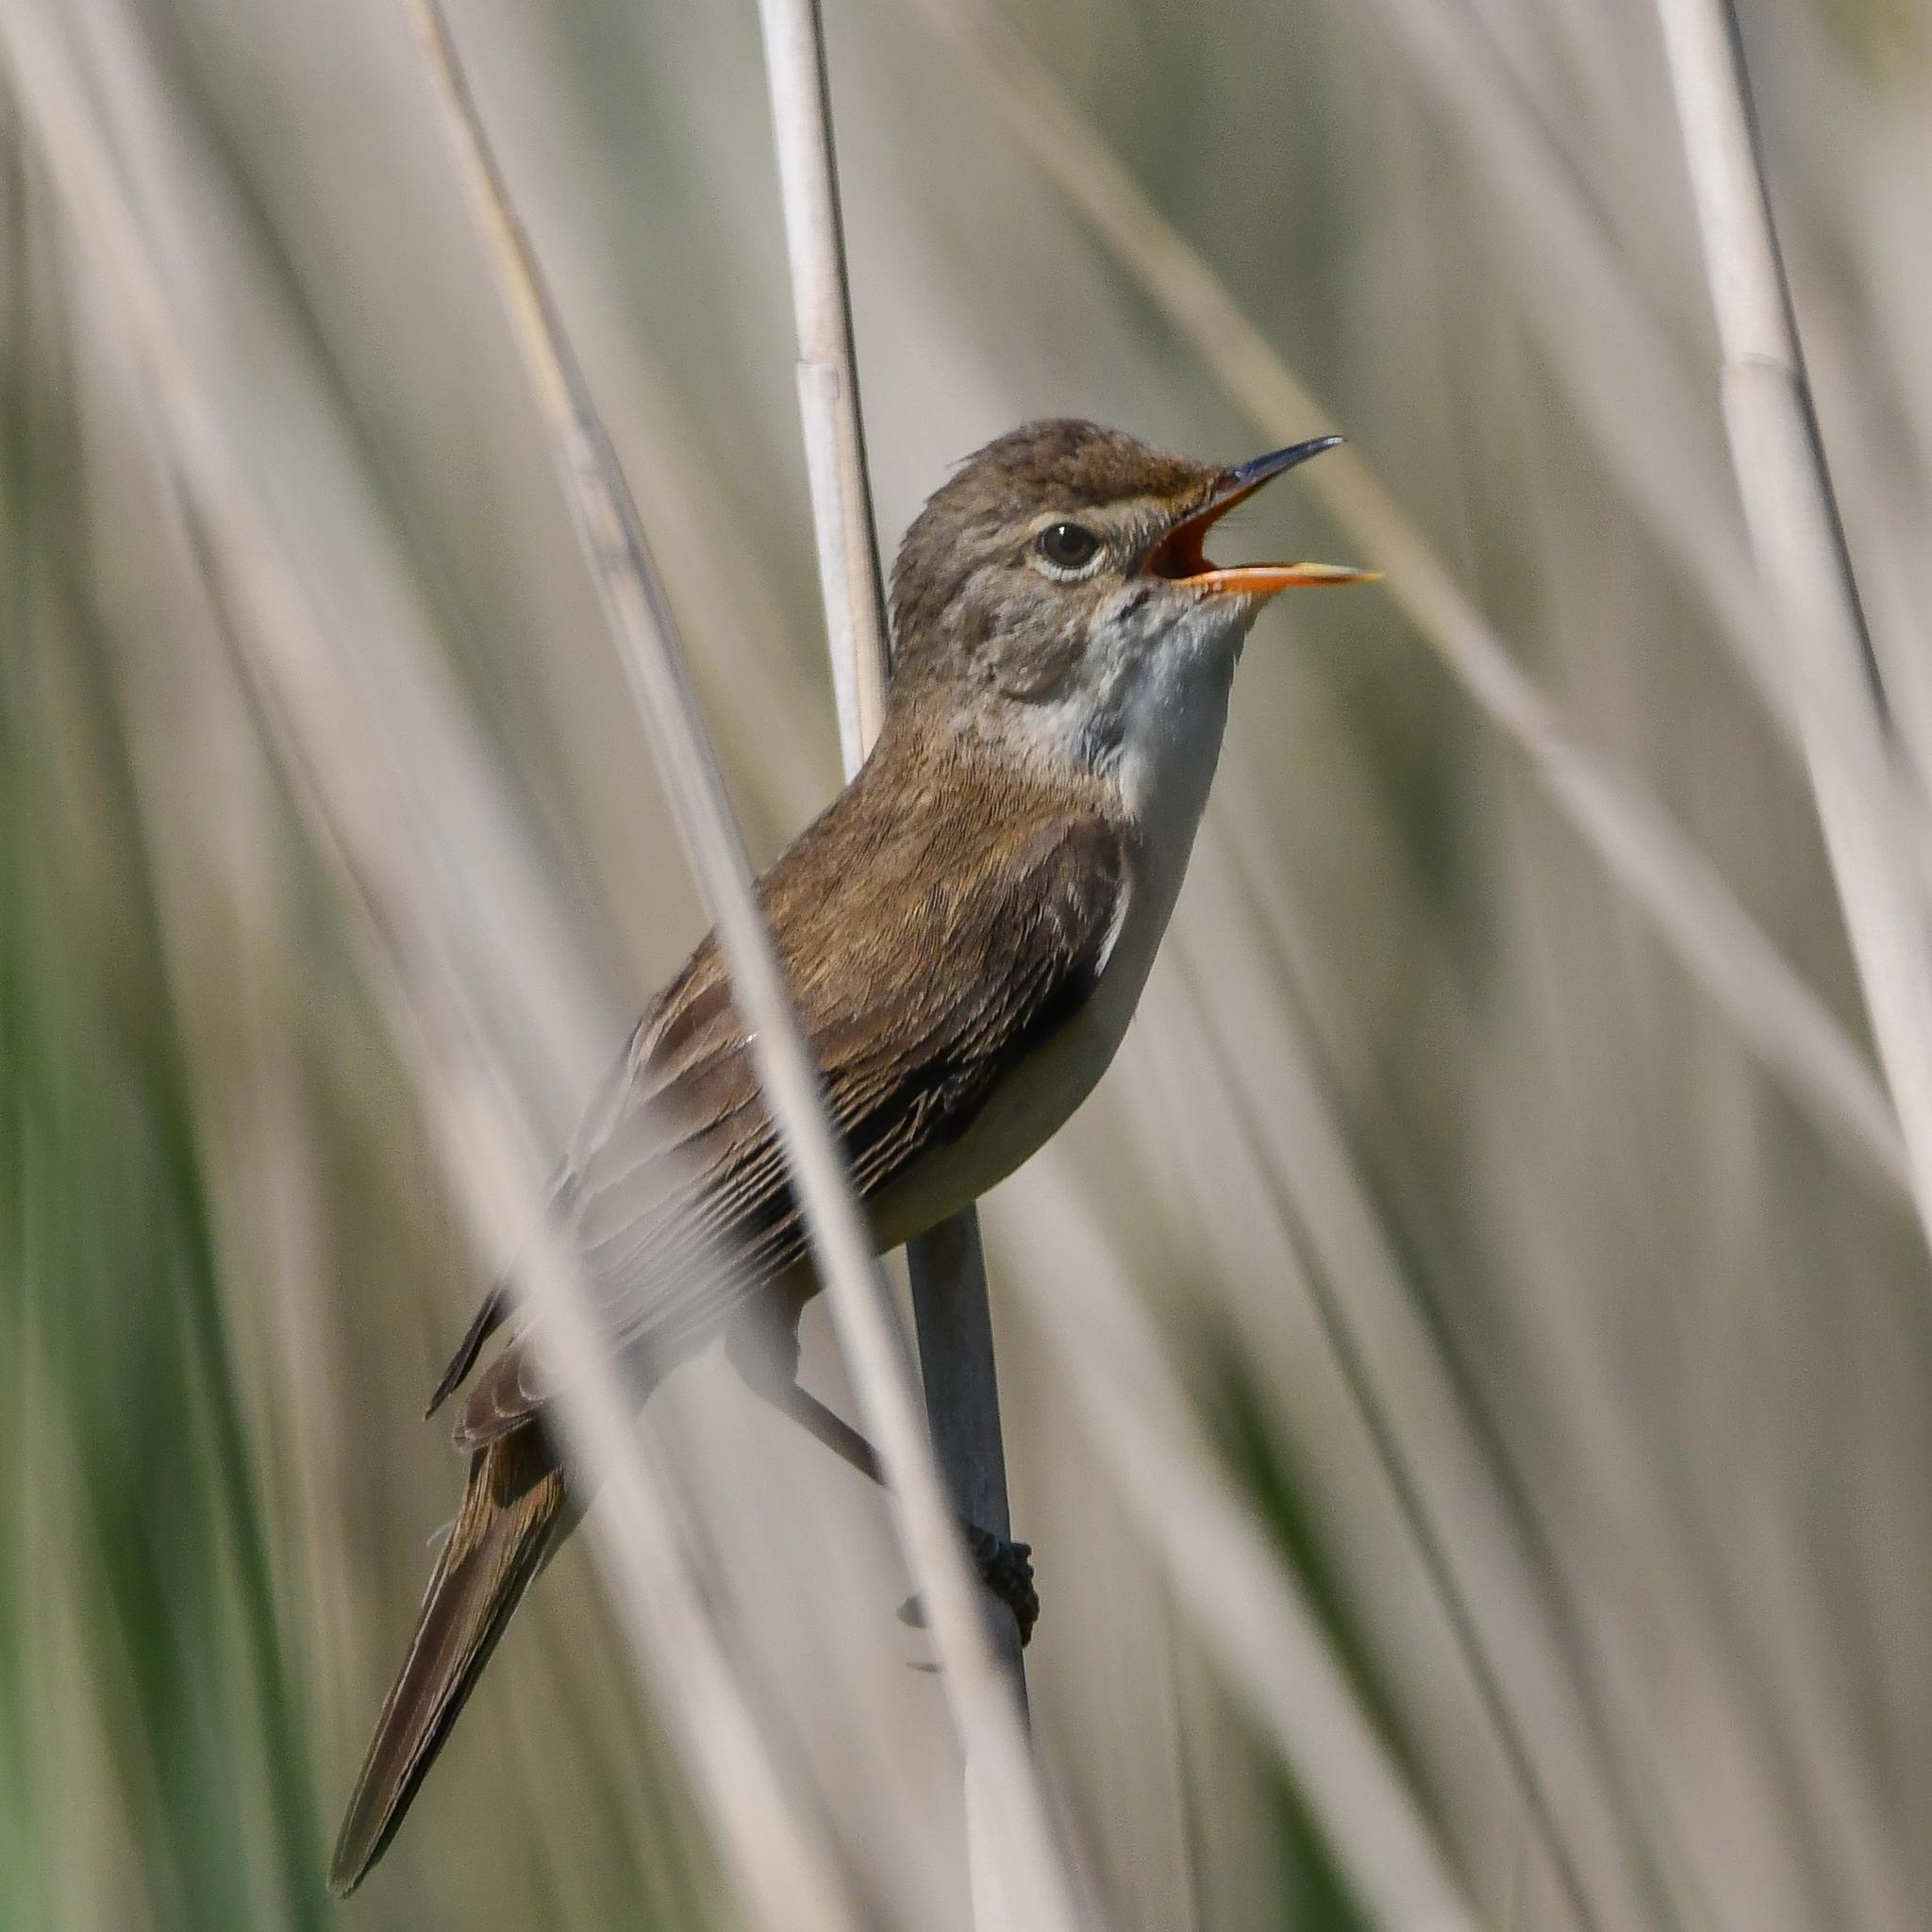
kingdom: Animalia
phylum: Chordata
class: Aves
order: Passeriformes
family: Acrocephalidae
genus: Acrocephalus
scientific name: Acrocephalus scirpaceus
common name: Eurasian reed warbler
